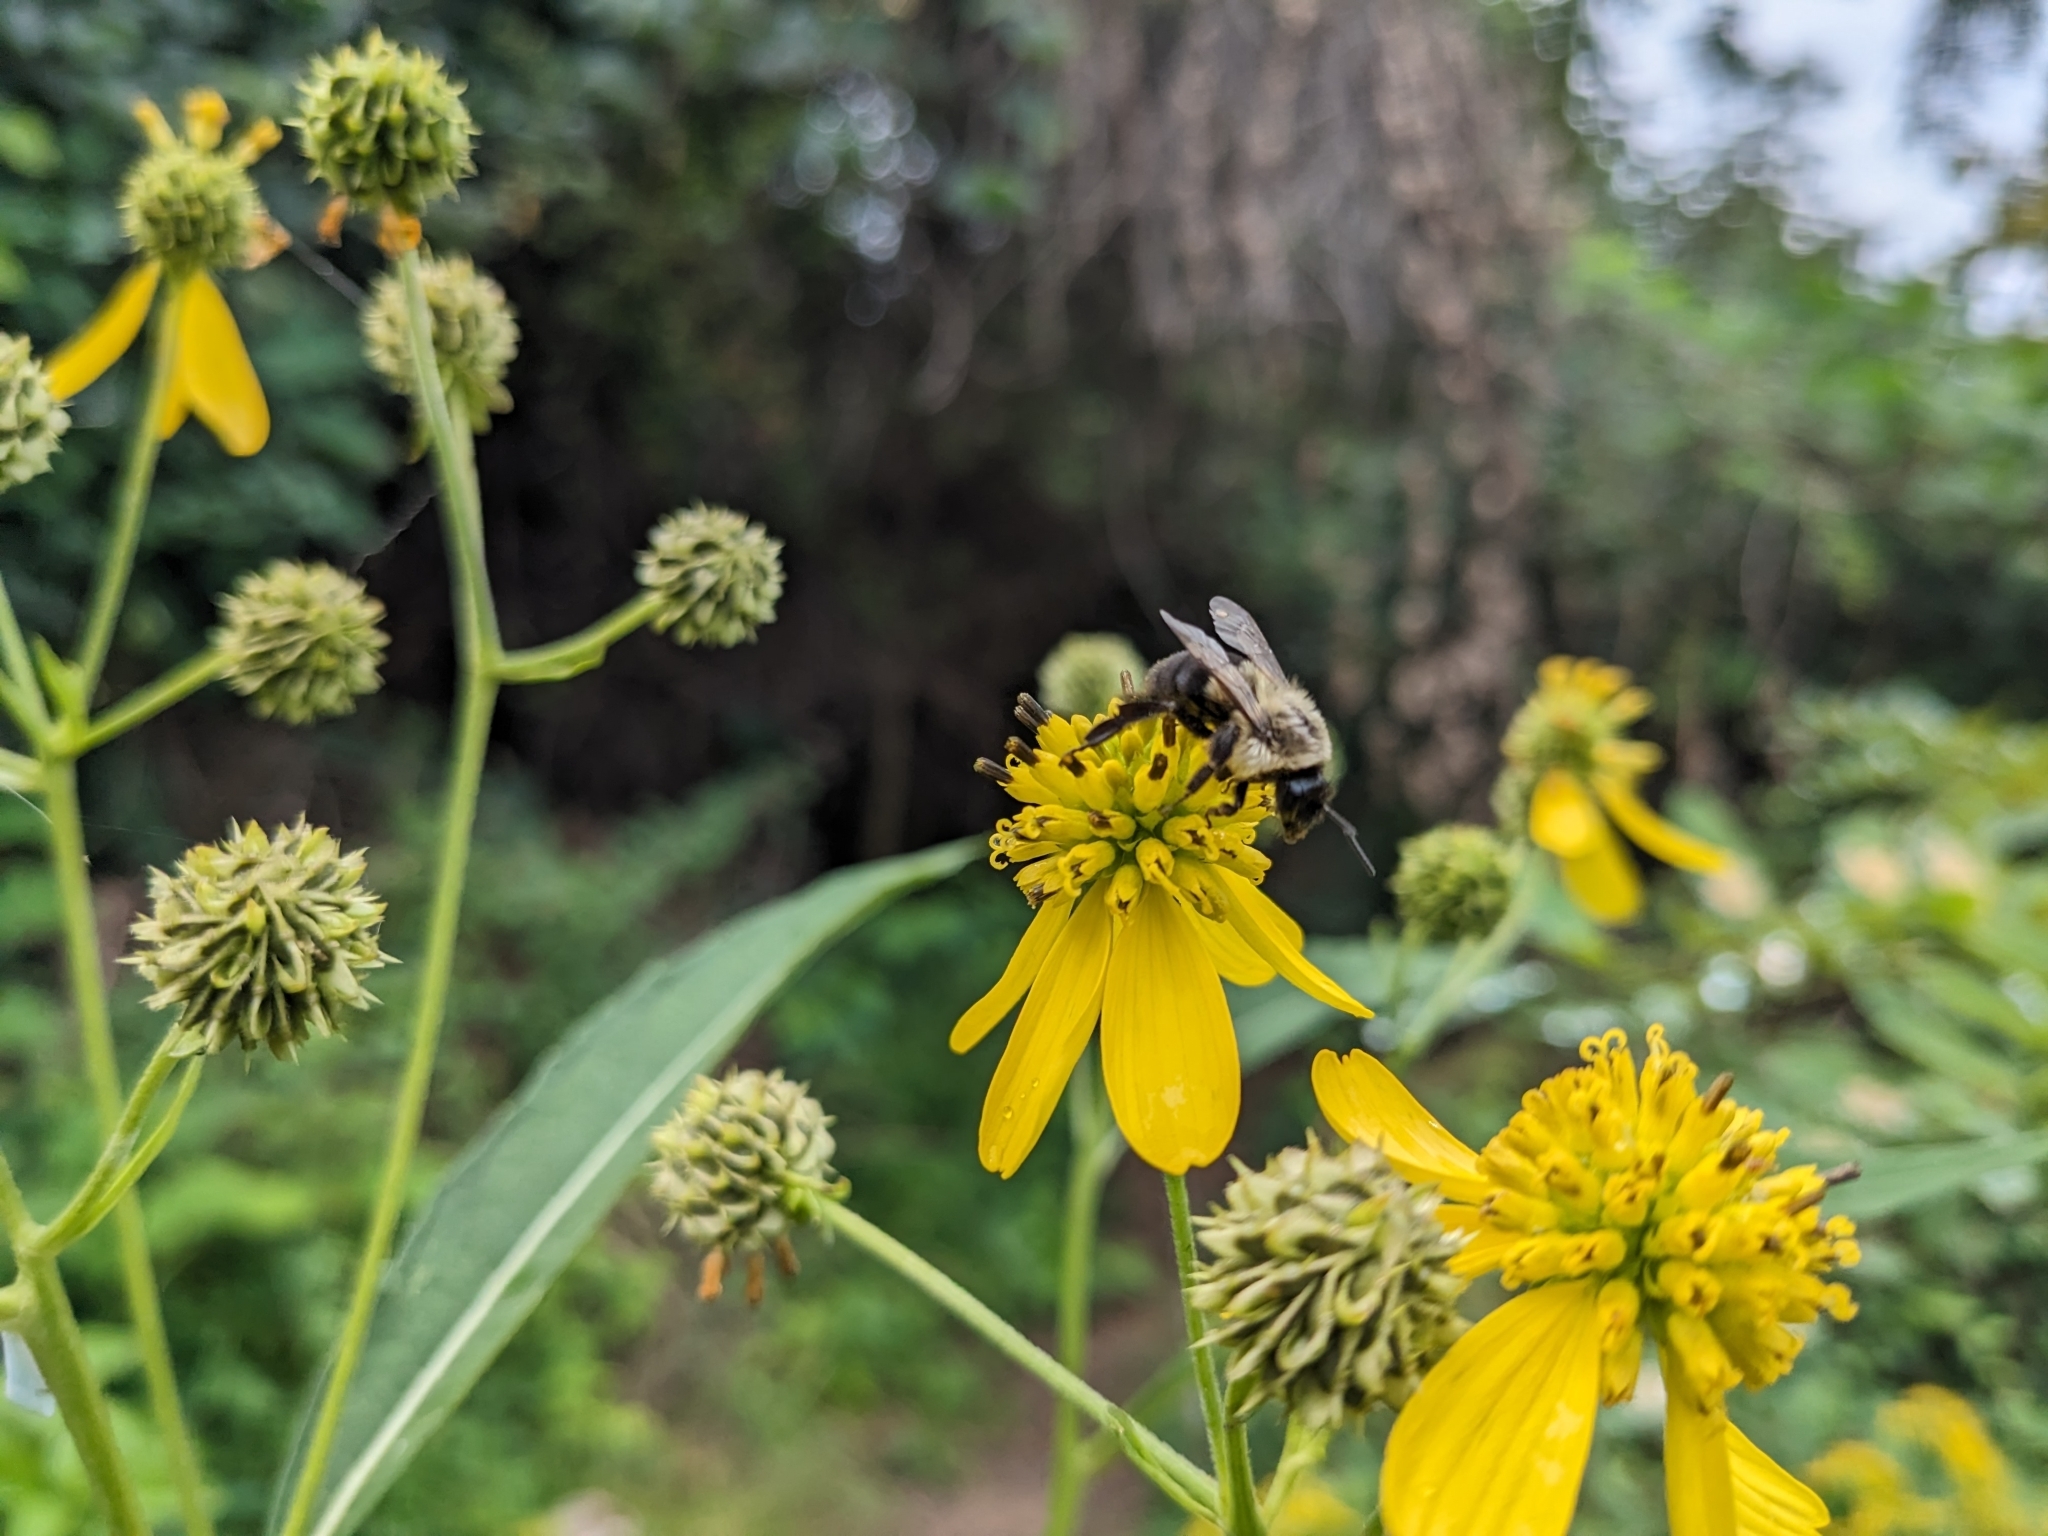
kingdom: Animalia
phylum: Arthropoda
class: Insecta
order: Hymenoptera
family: Apidae
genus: Bombus
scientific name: Bombus impatiens
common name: Common eastern bumble bee
